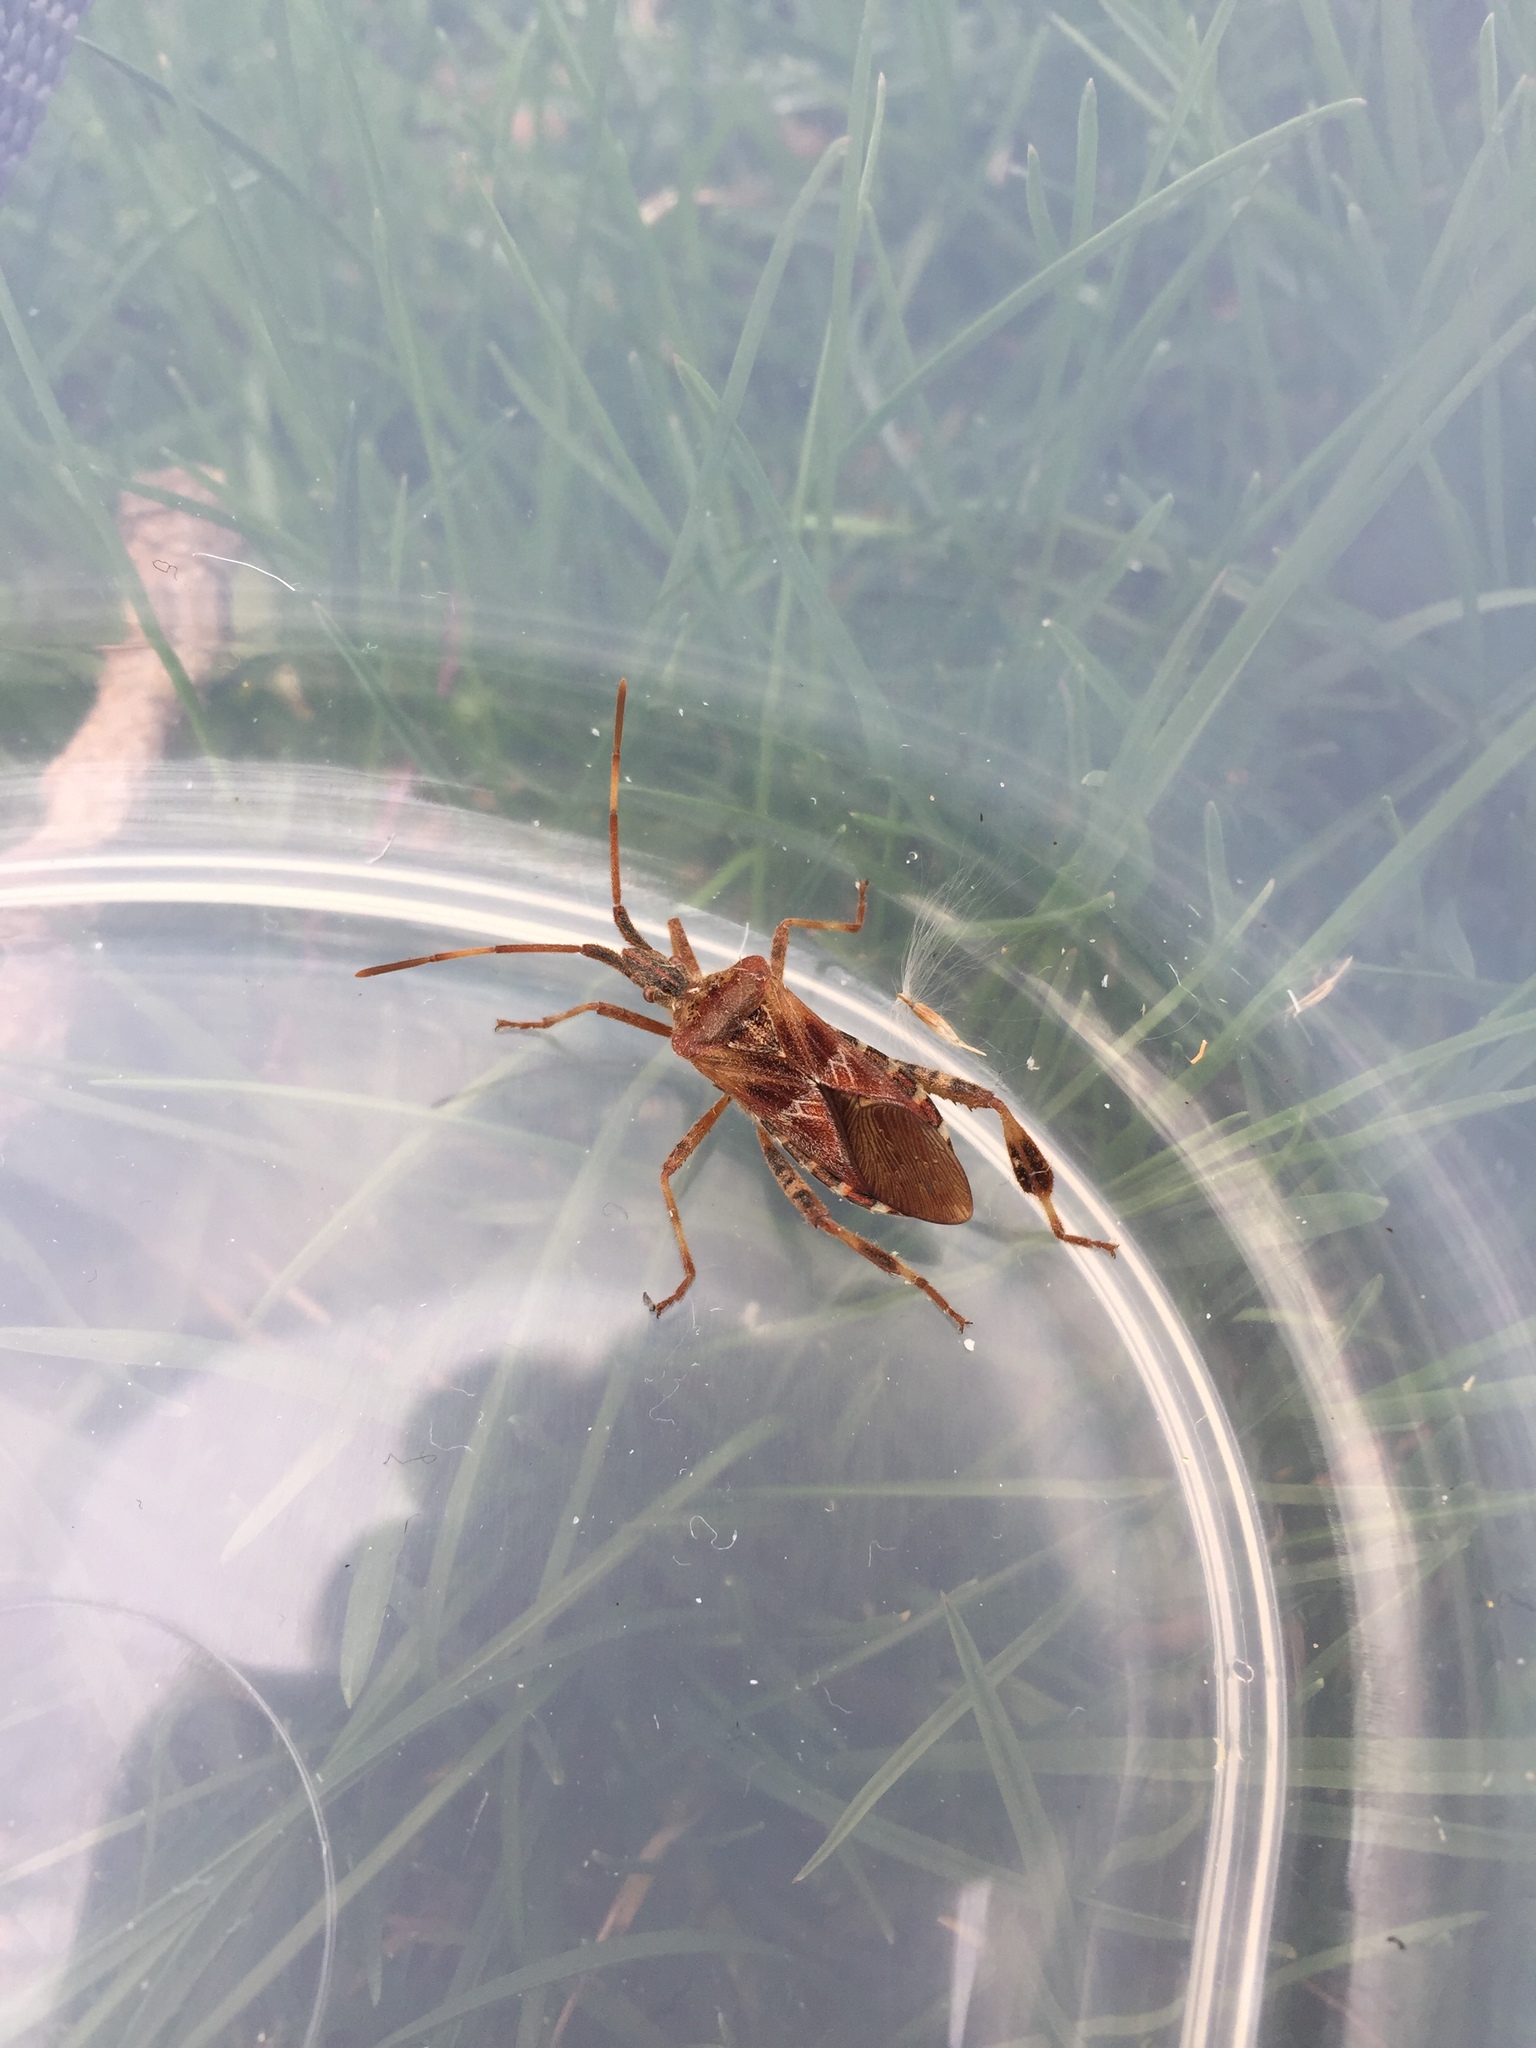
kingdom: Animalia
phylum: Arthropoda
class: Insecta
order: Hemiptera
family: Coreidae
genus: Leptoglossus
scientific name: Leptoglossus occidentalis
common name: Western conifer-seed bug
